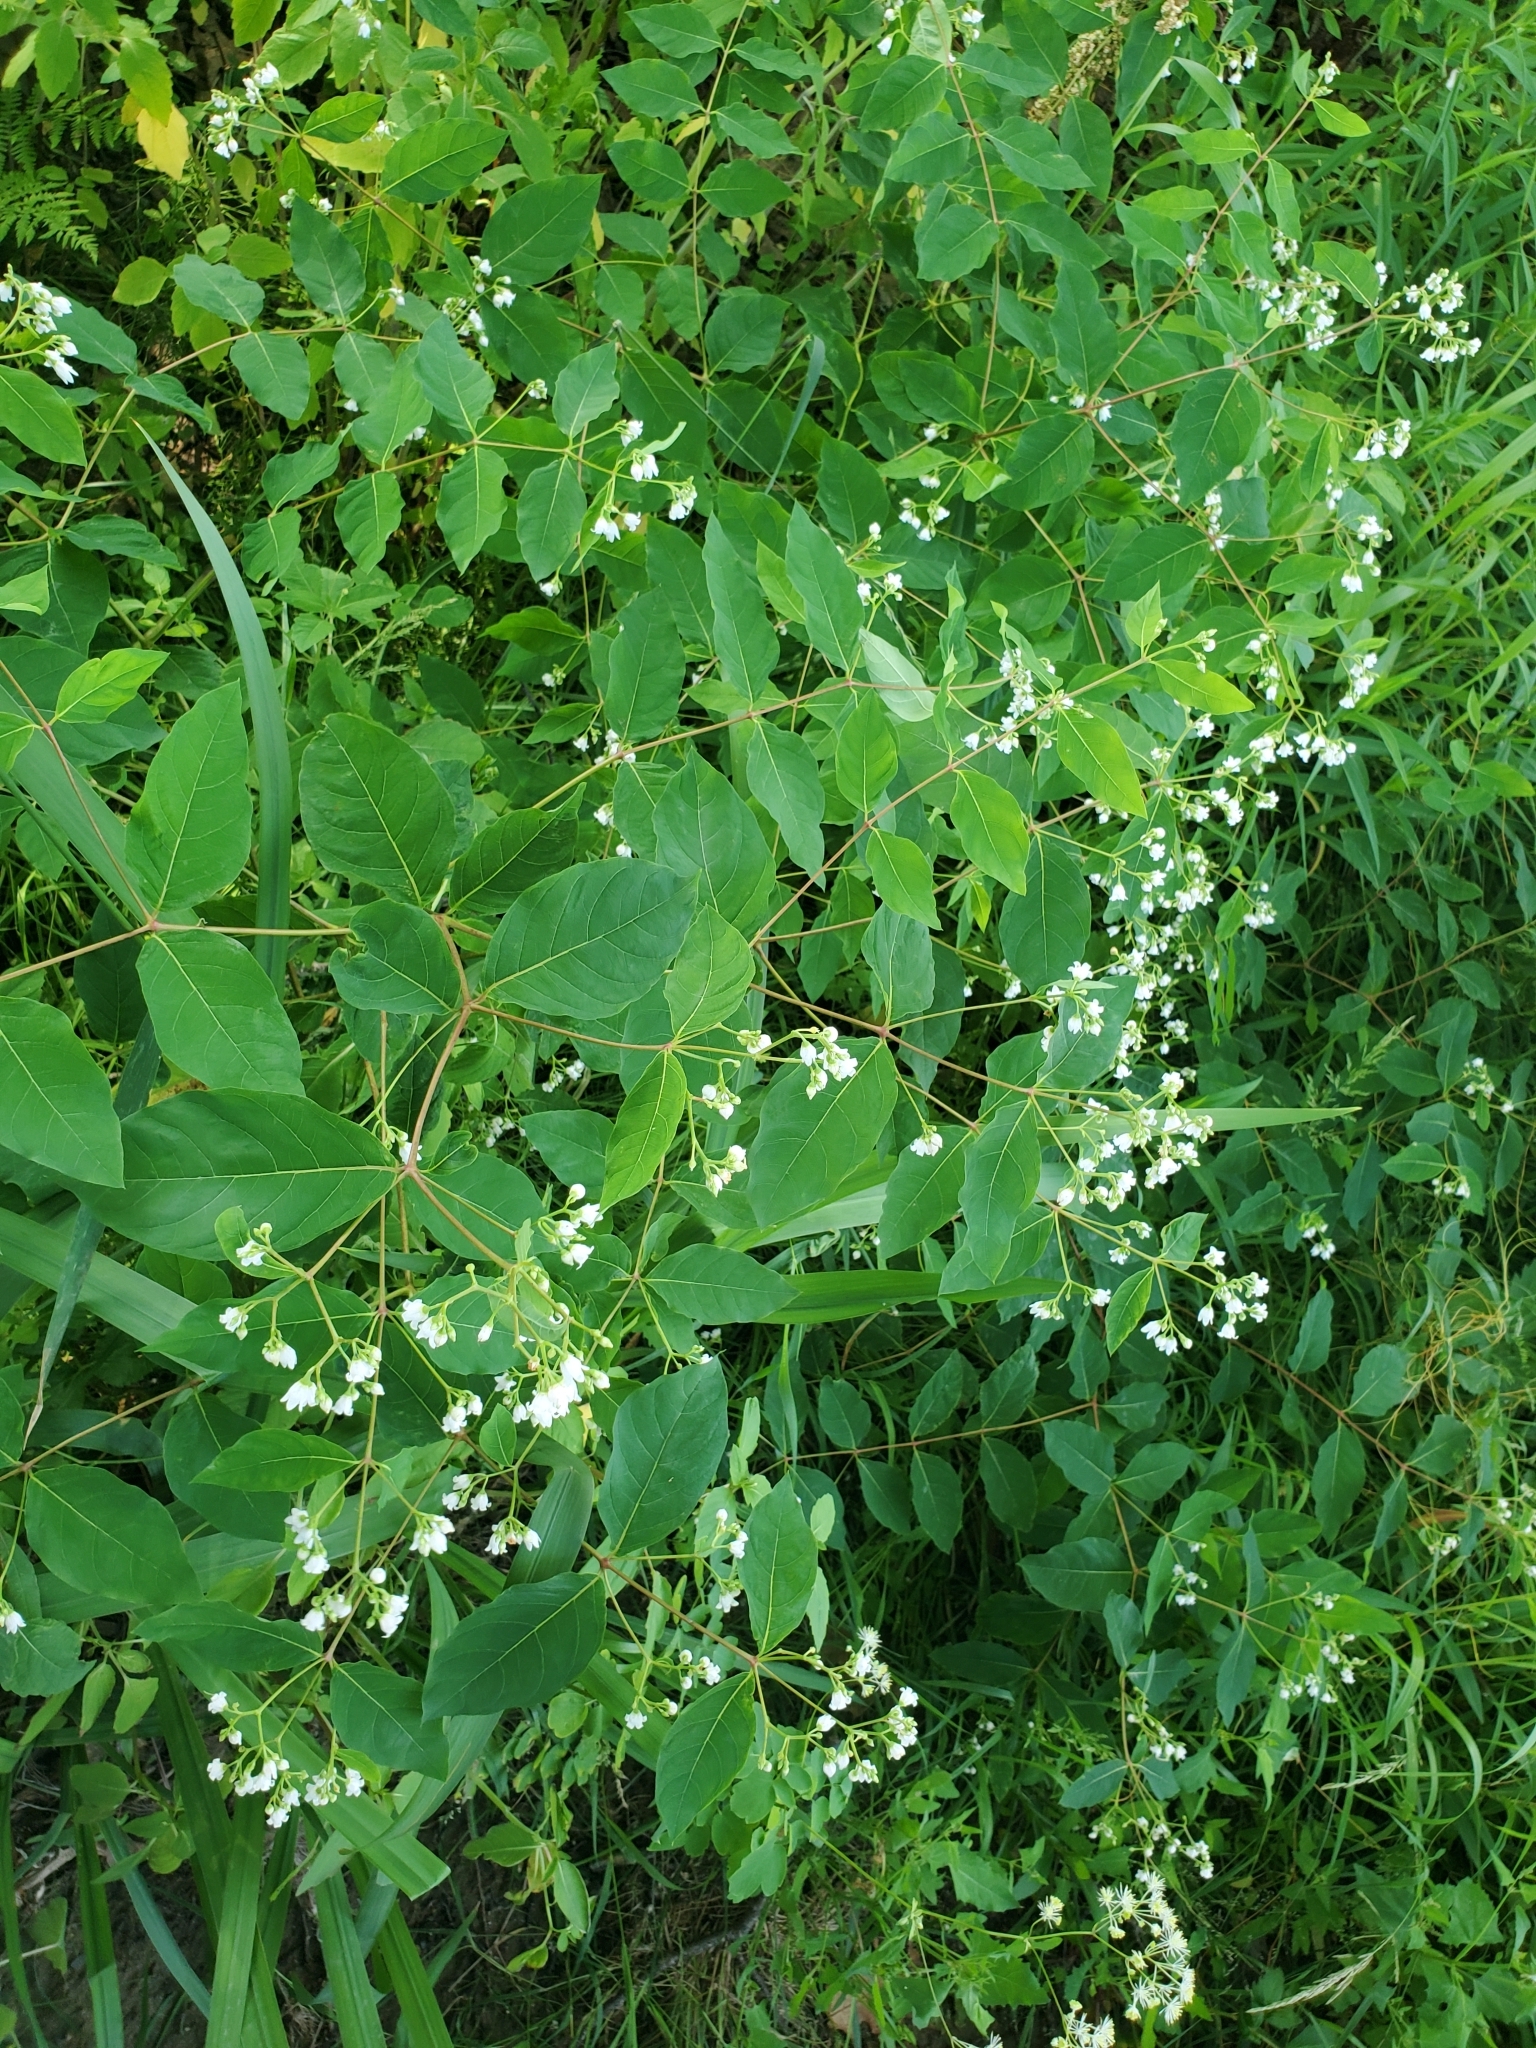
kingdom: Plantae
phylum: Tracheophyta
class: Magnoliopsida
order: Gentianales
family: Apocynaceae
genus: Apocynum
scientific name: Apocynum androsaemifolium
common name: Spreading dogbane
